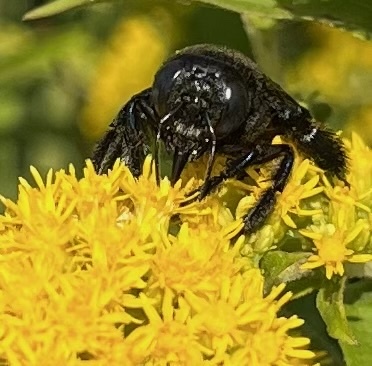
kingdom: Animalia
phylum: Arthropoda
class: Insecta
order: Hymenoptera
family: Apidae
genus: Xylocopa
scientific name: Xylocopa micans
